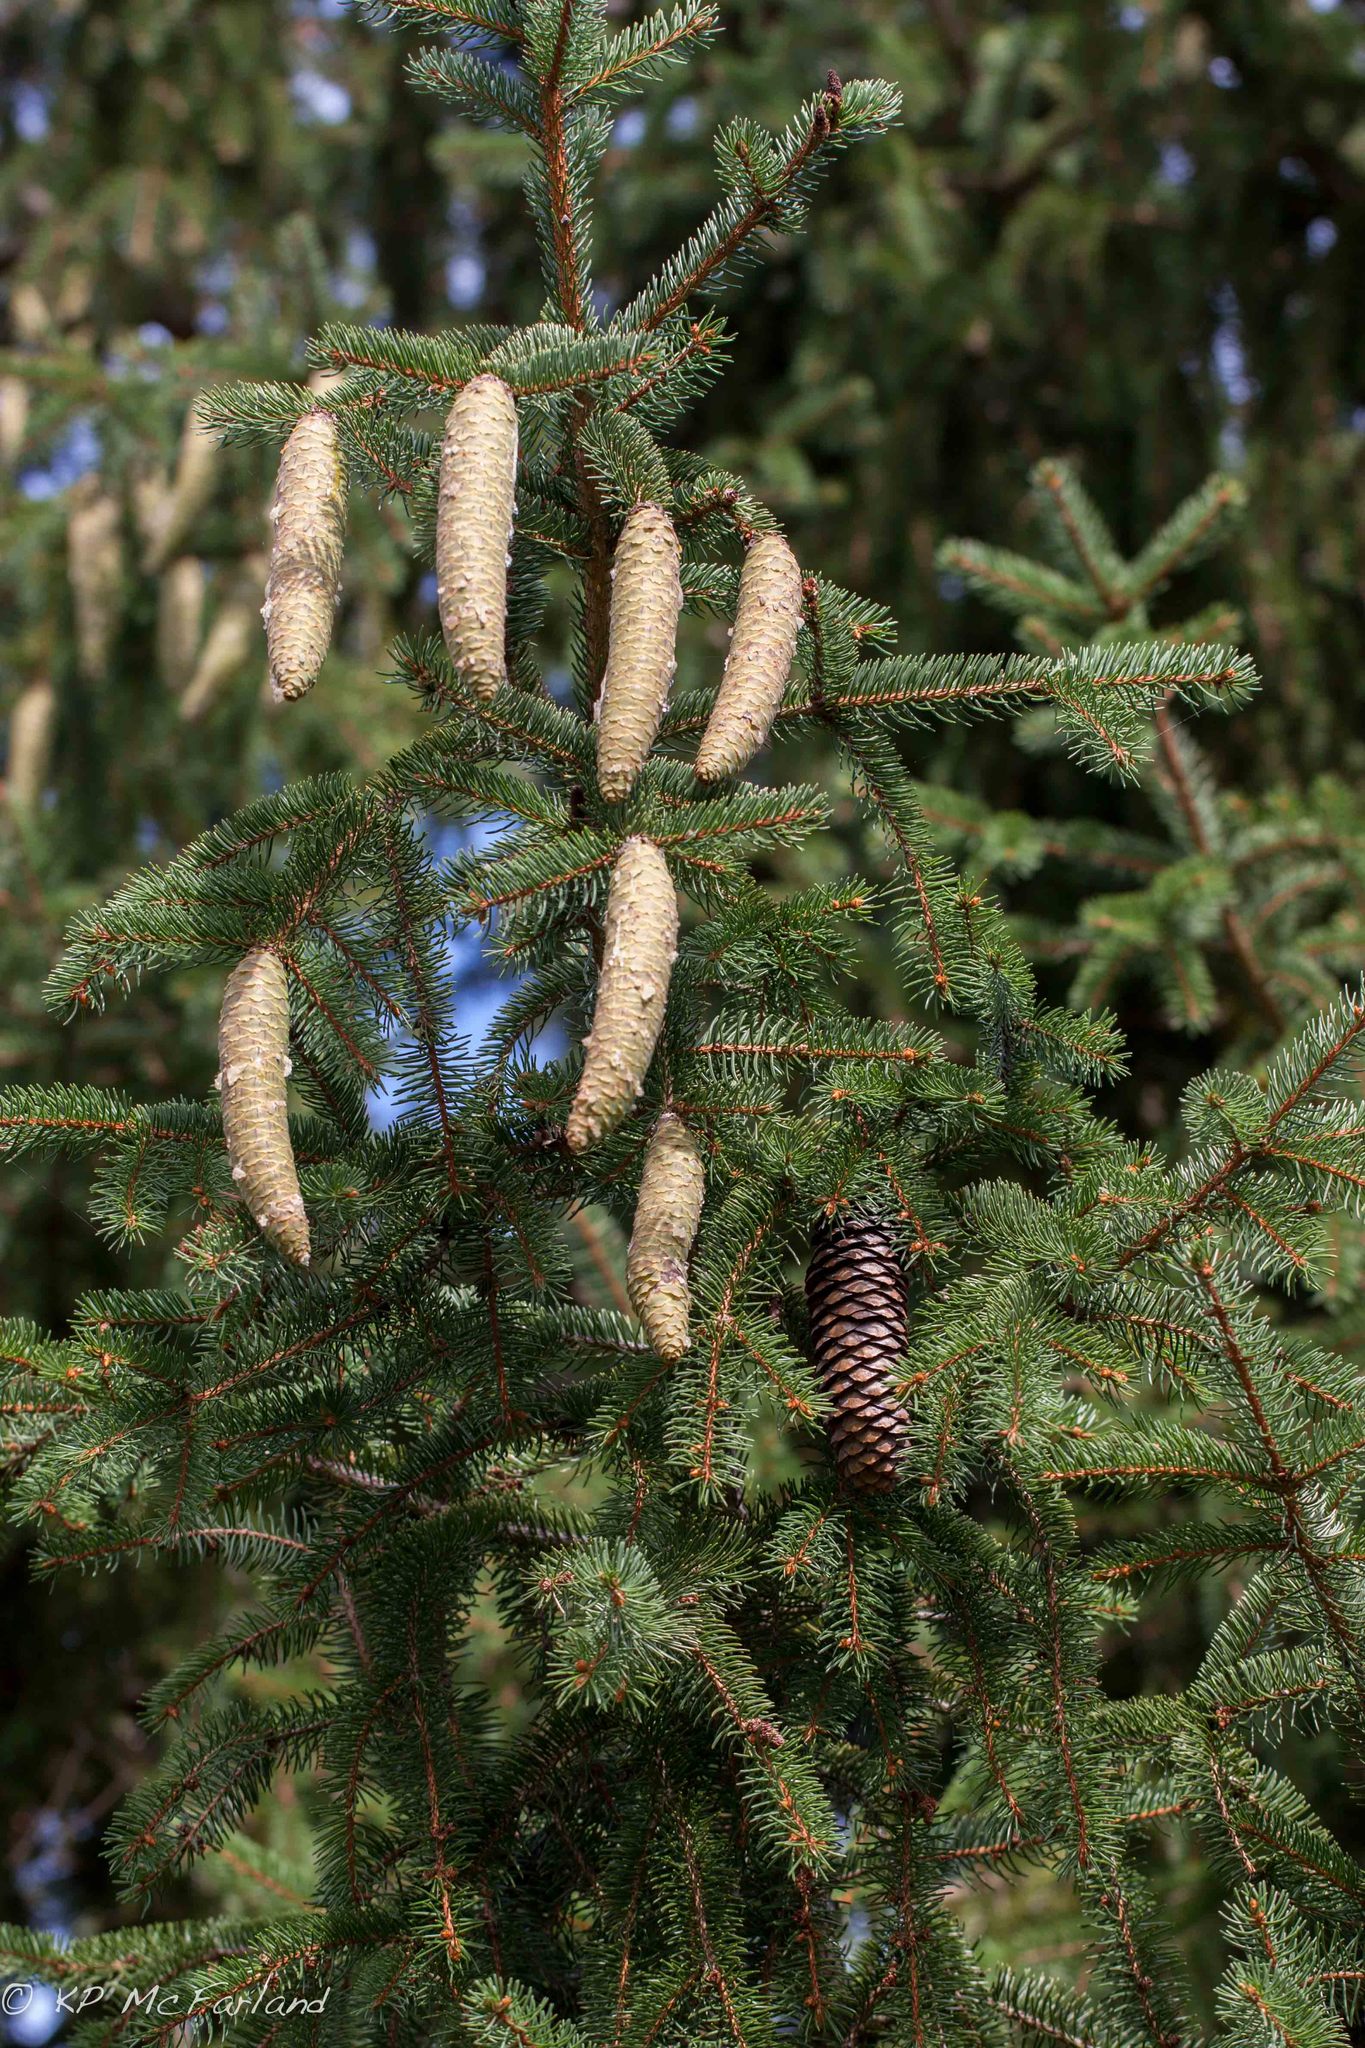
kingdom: Plantae
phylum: Tracheophyta
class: Pinopsida
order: Pinales
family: Pinaceae
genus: Picea
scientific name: Picea abies
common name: Norway spruce
